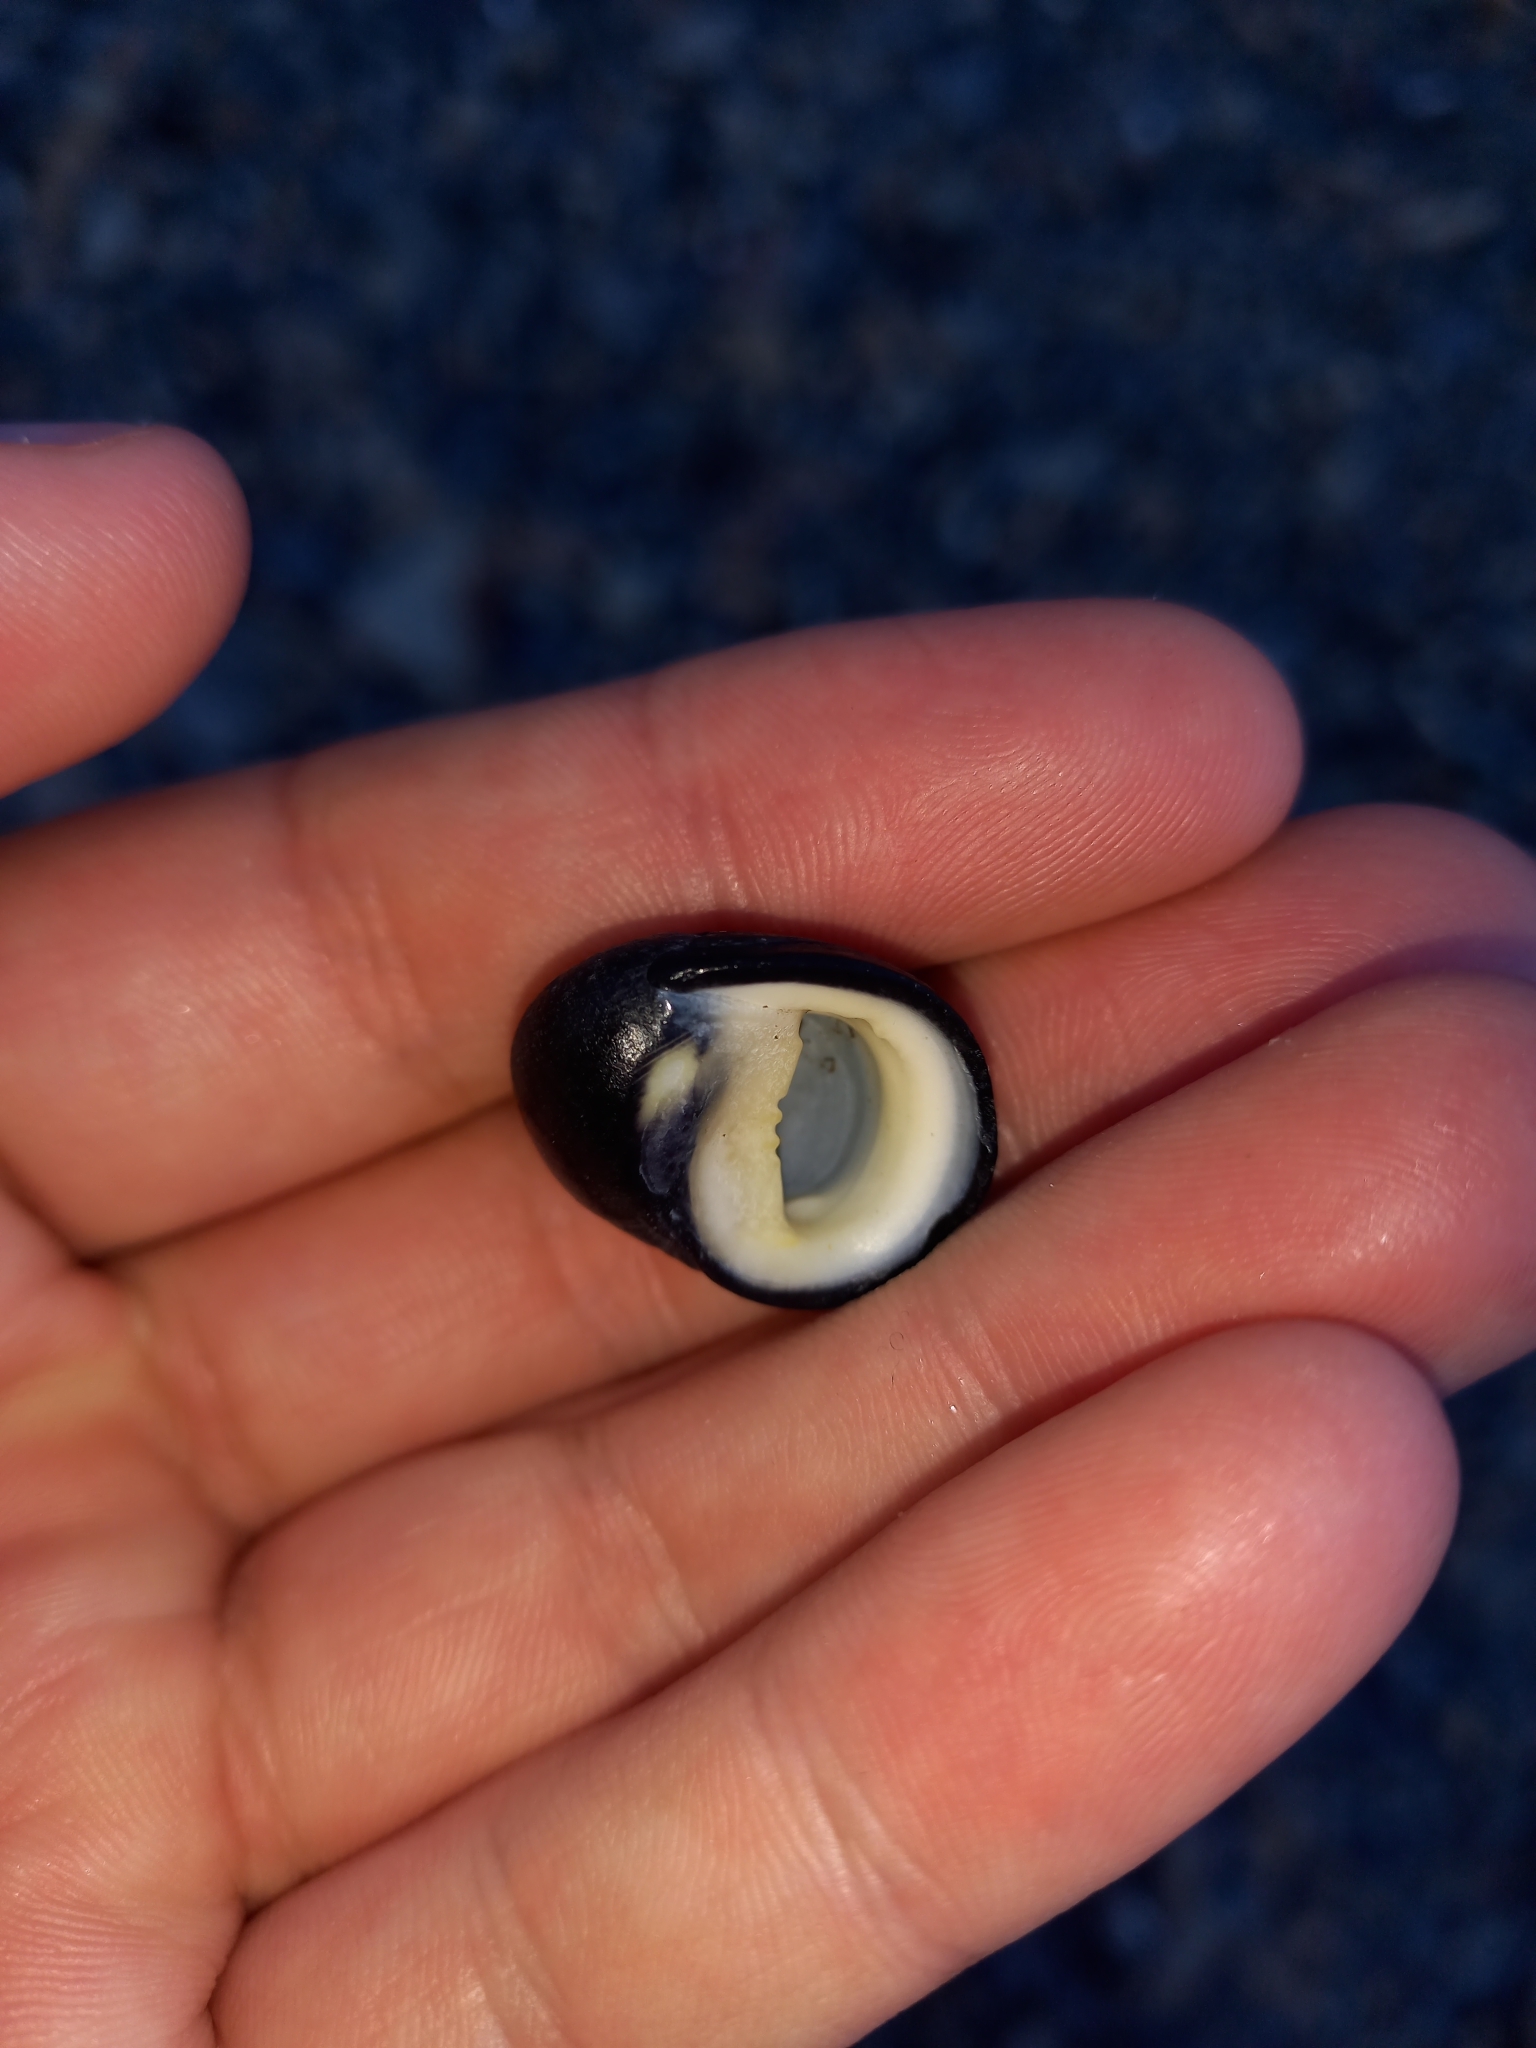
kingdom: Animalia
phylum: Mollusca
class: Gastropoda
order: Cycloneritida
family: Neritidae
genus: Nerita
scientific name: Nerita melanotragus
